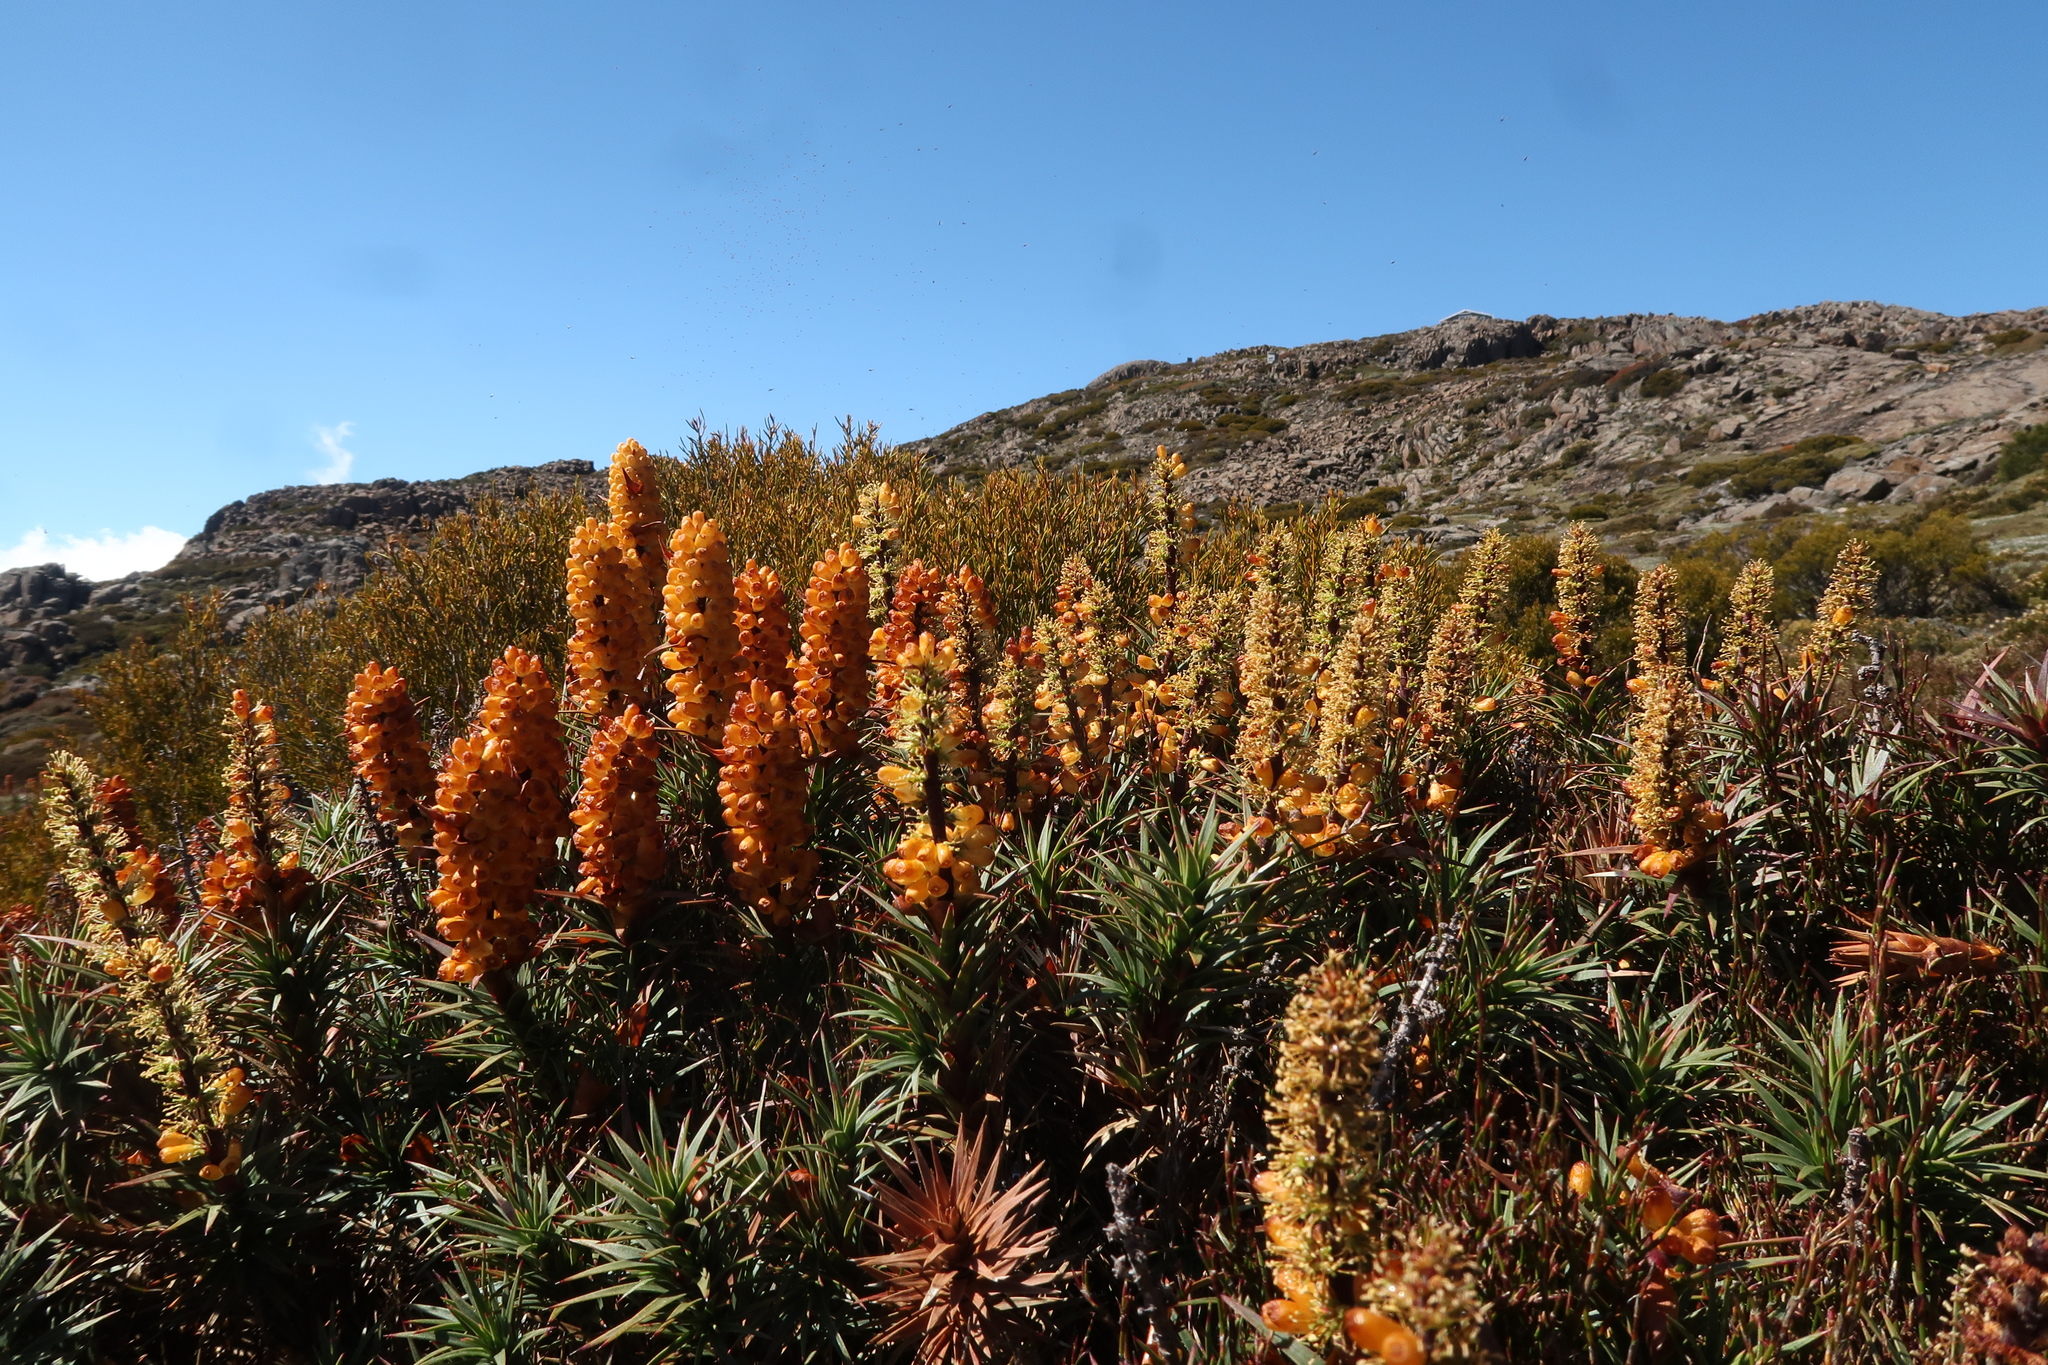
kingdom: Plantae
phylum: Tracheophyta
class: Magnoliopsida
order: Ericales
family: Ericaceae
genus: Dracophyllum
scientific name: Dracophyllum persistentifolium
